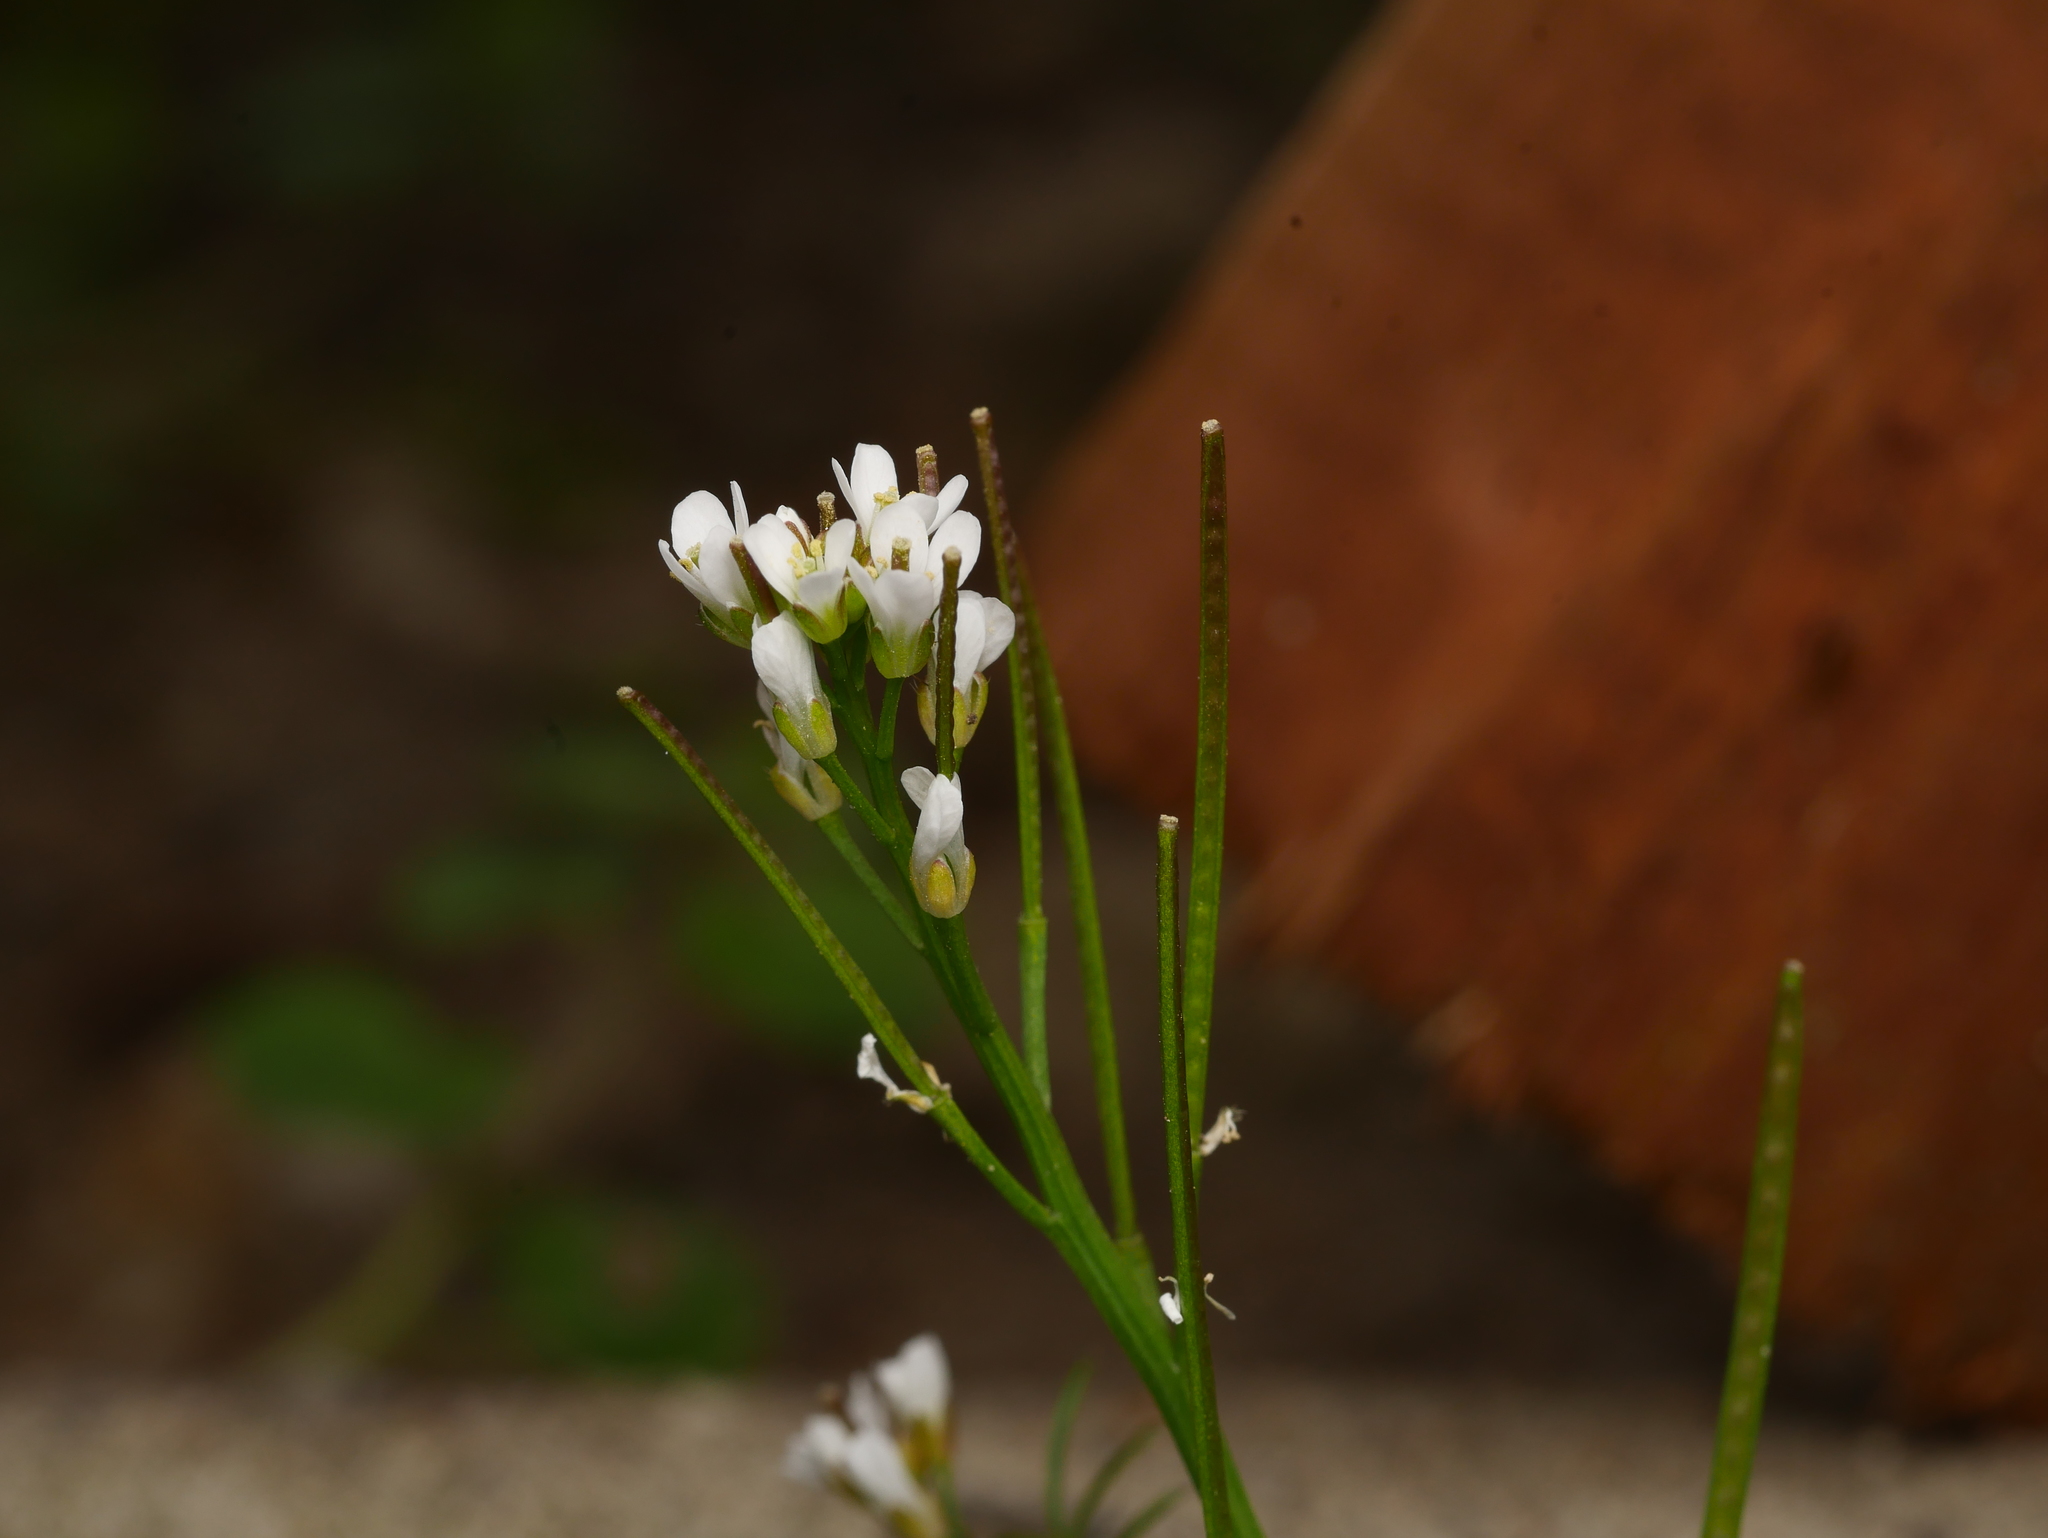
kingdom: Plantae
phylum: Tracheophyta
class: Magnoliopsida
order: Brassicales
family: Brassicaceae
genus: Cardamine
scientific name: Cardamine hirsuta
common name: Hairy bittercress
